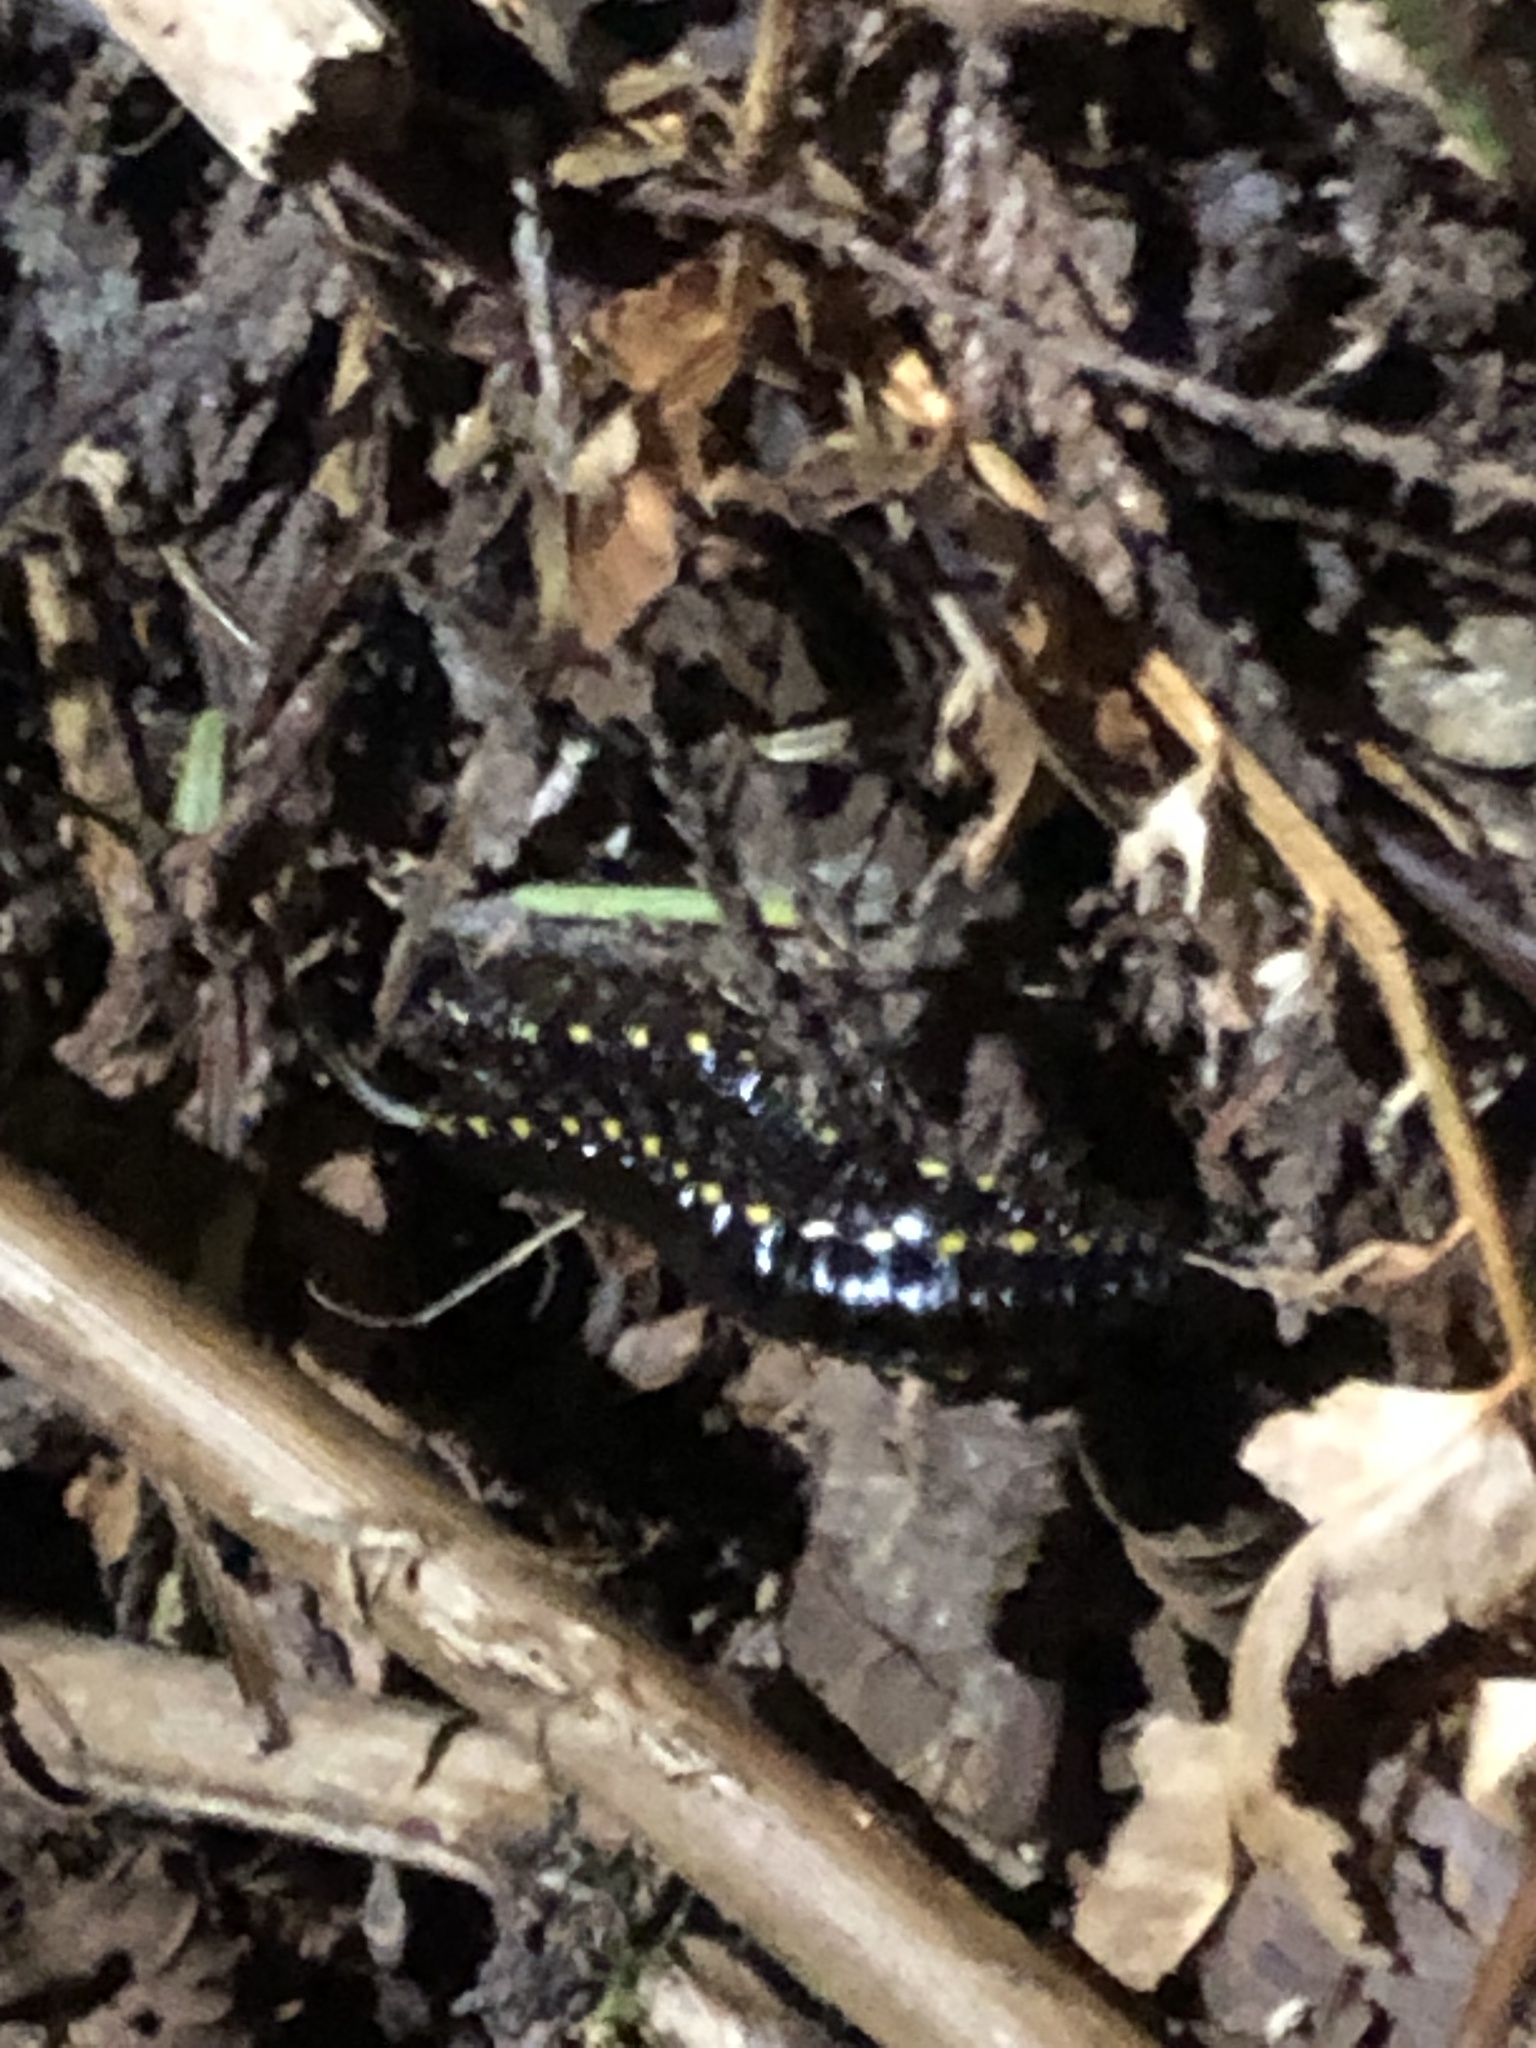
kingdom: Animalia
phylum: Arthropoda
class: Diplopoda
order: Polydesmida
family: Xystodesmidae
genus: Harpaphe
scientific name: Harpaphe haydeniana
